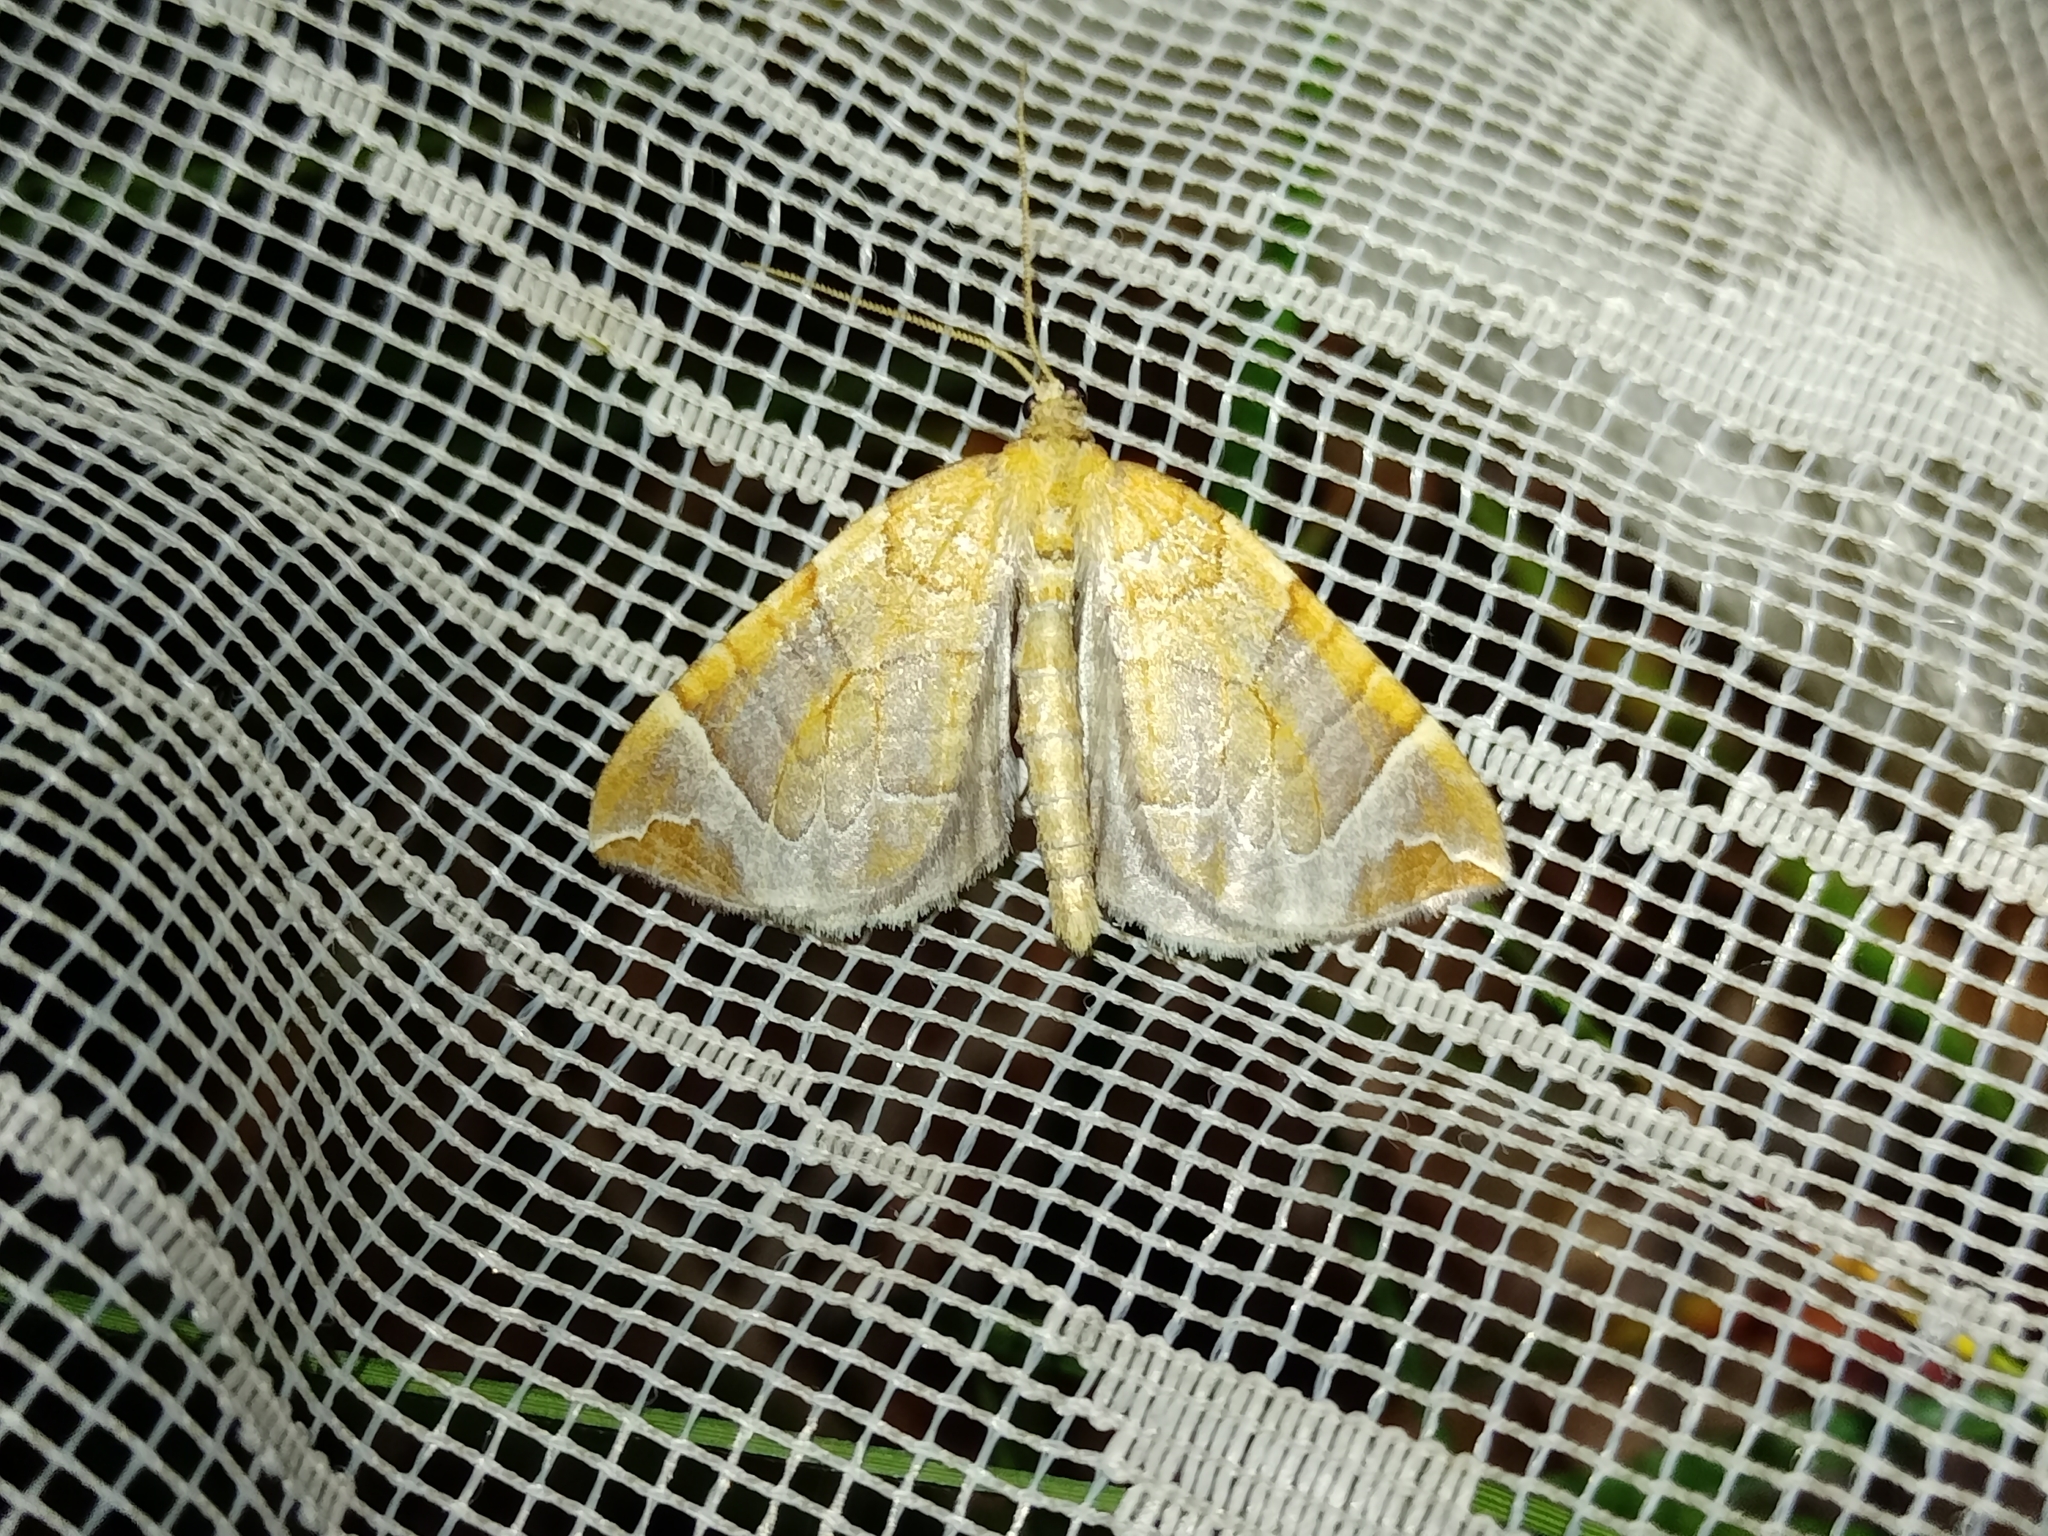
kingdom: Animalia
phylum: Arthropoda
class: Insecta
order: Lepidoptera
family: Geometridae
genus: Eulithis
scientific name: Eulithis testata
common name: Chevron
